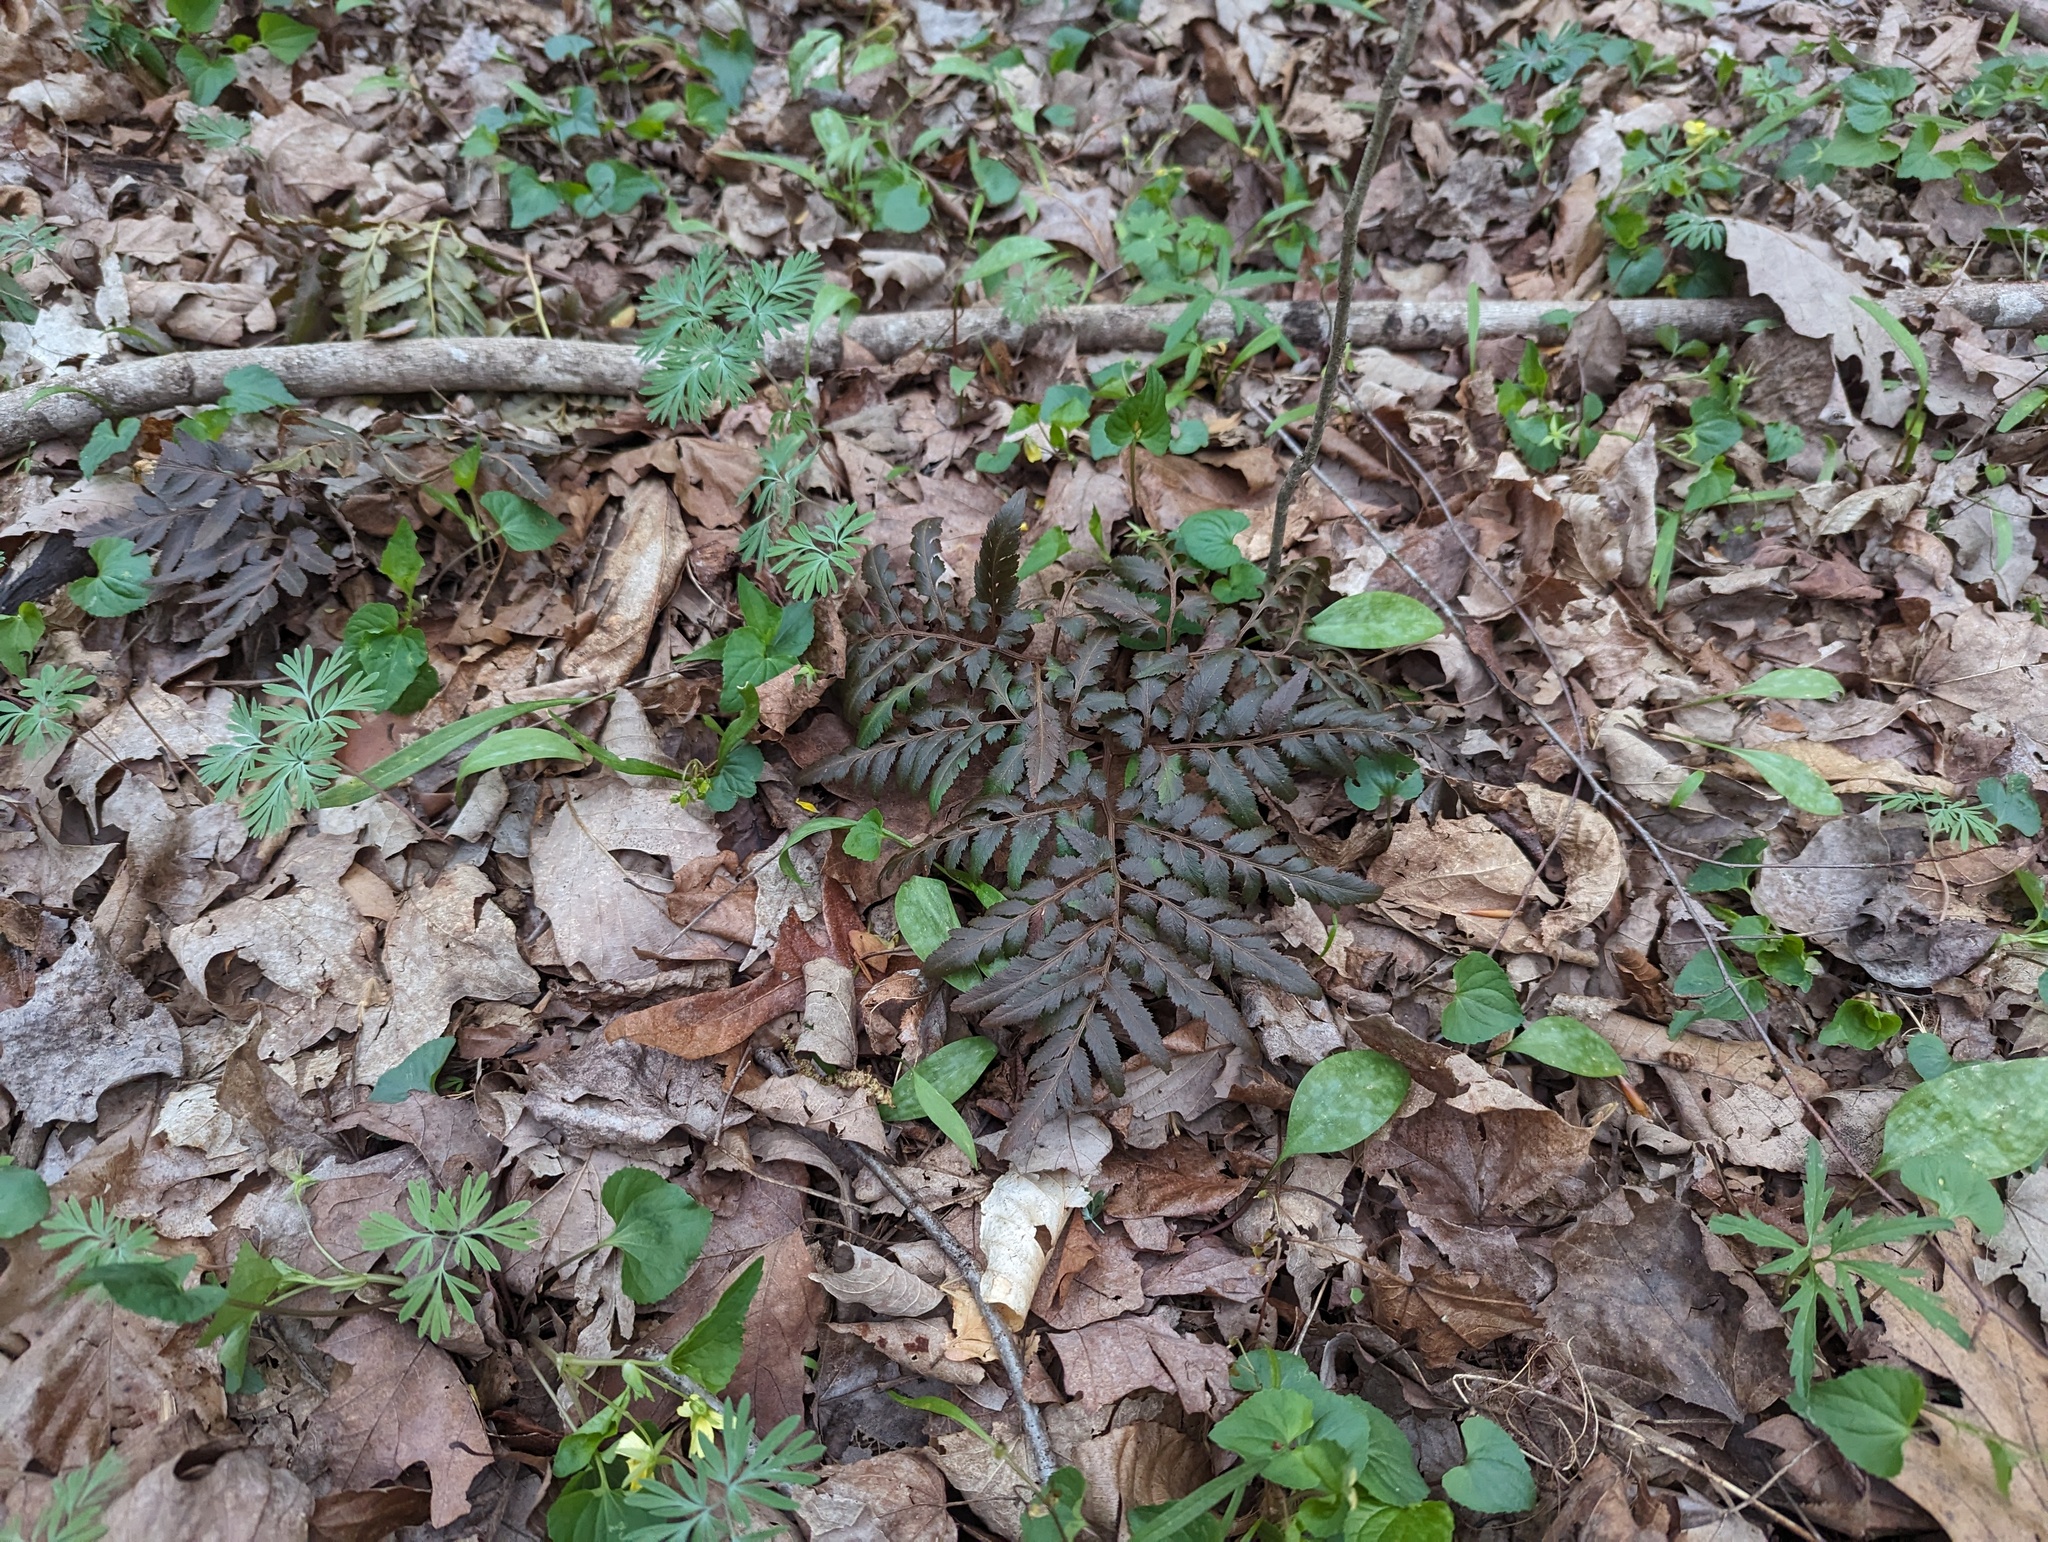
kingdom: Plantae
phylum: Tracheophyta
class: Polypodiopsida
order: Ophioglossales
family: Ophioglossaceae
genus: Sceptridium
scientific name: Sceptridium dissectum
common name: Cut-leaved grapefern
